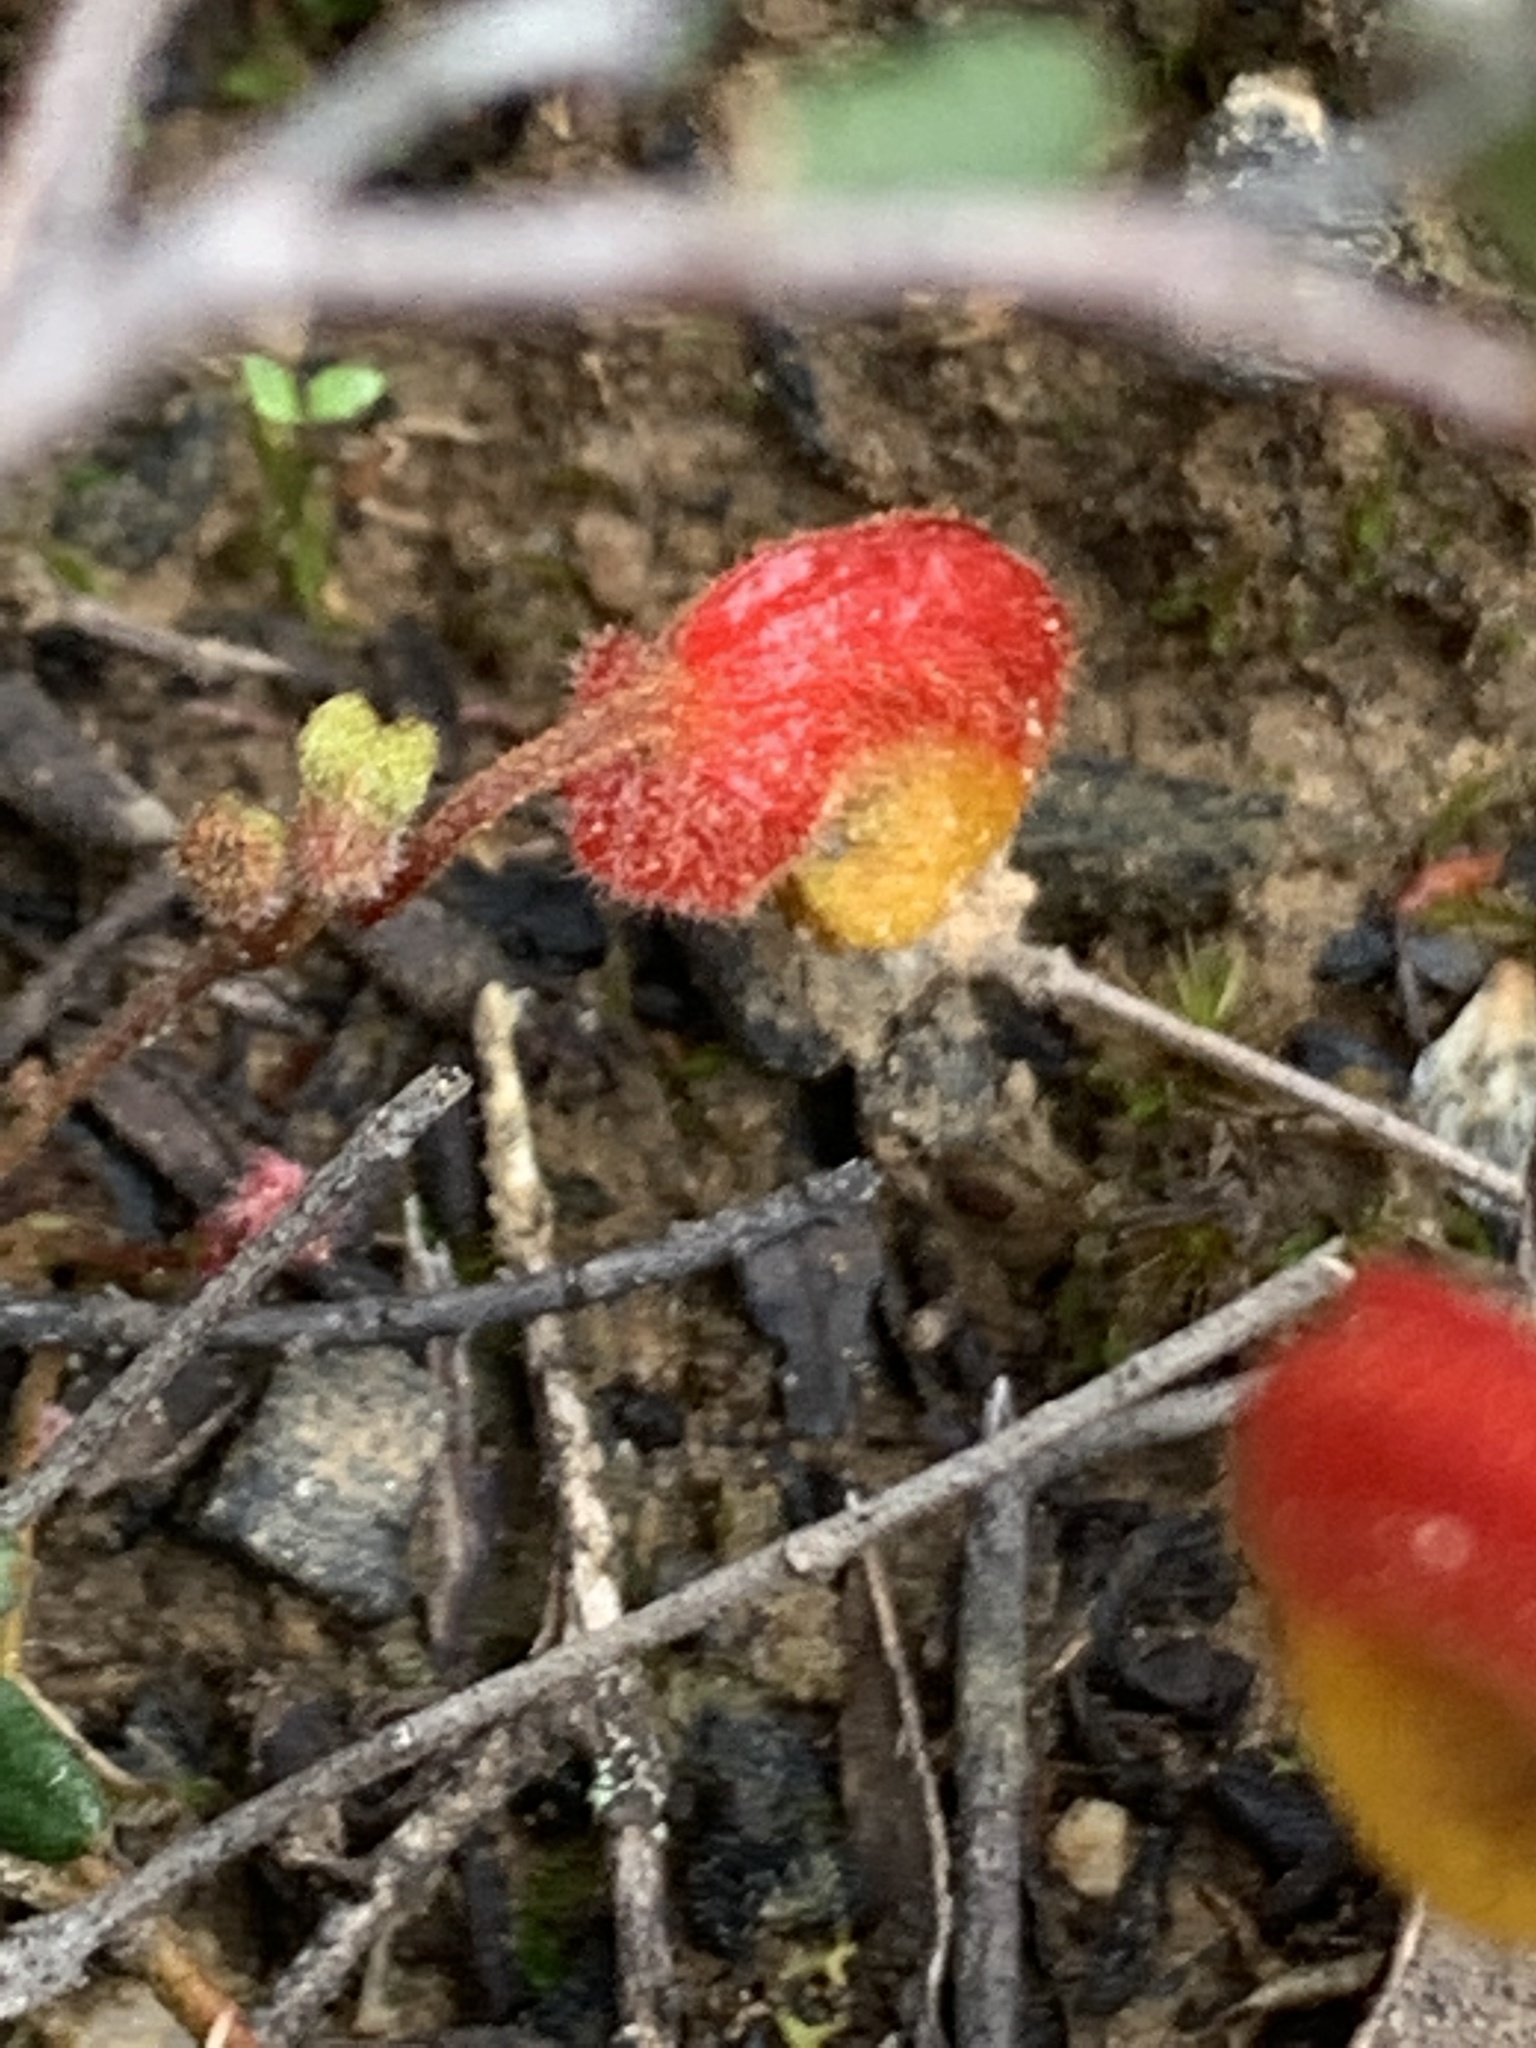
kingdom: Plantae
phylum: Tracheophyta
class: Magnoliopsida
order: Proteales
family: Proteaceae
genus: Grevillea
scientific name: Grevillea alpina
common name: Catclaws grevillea
